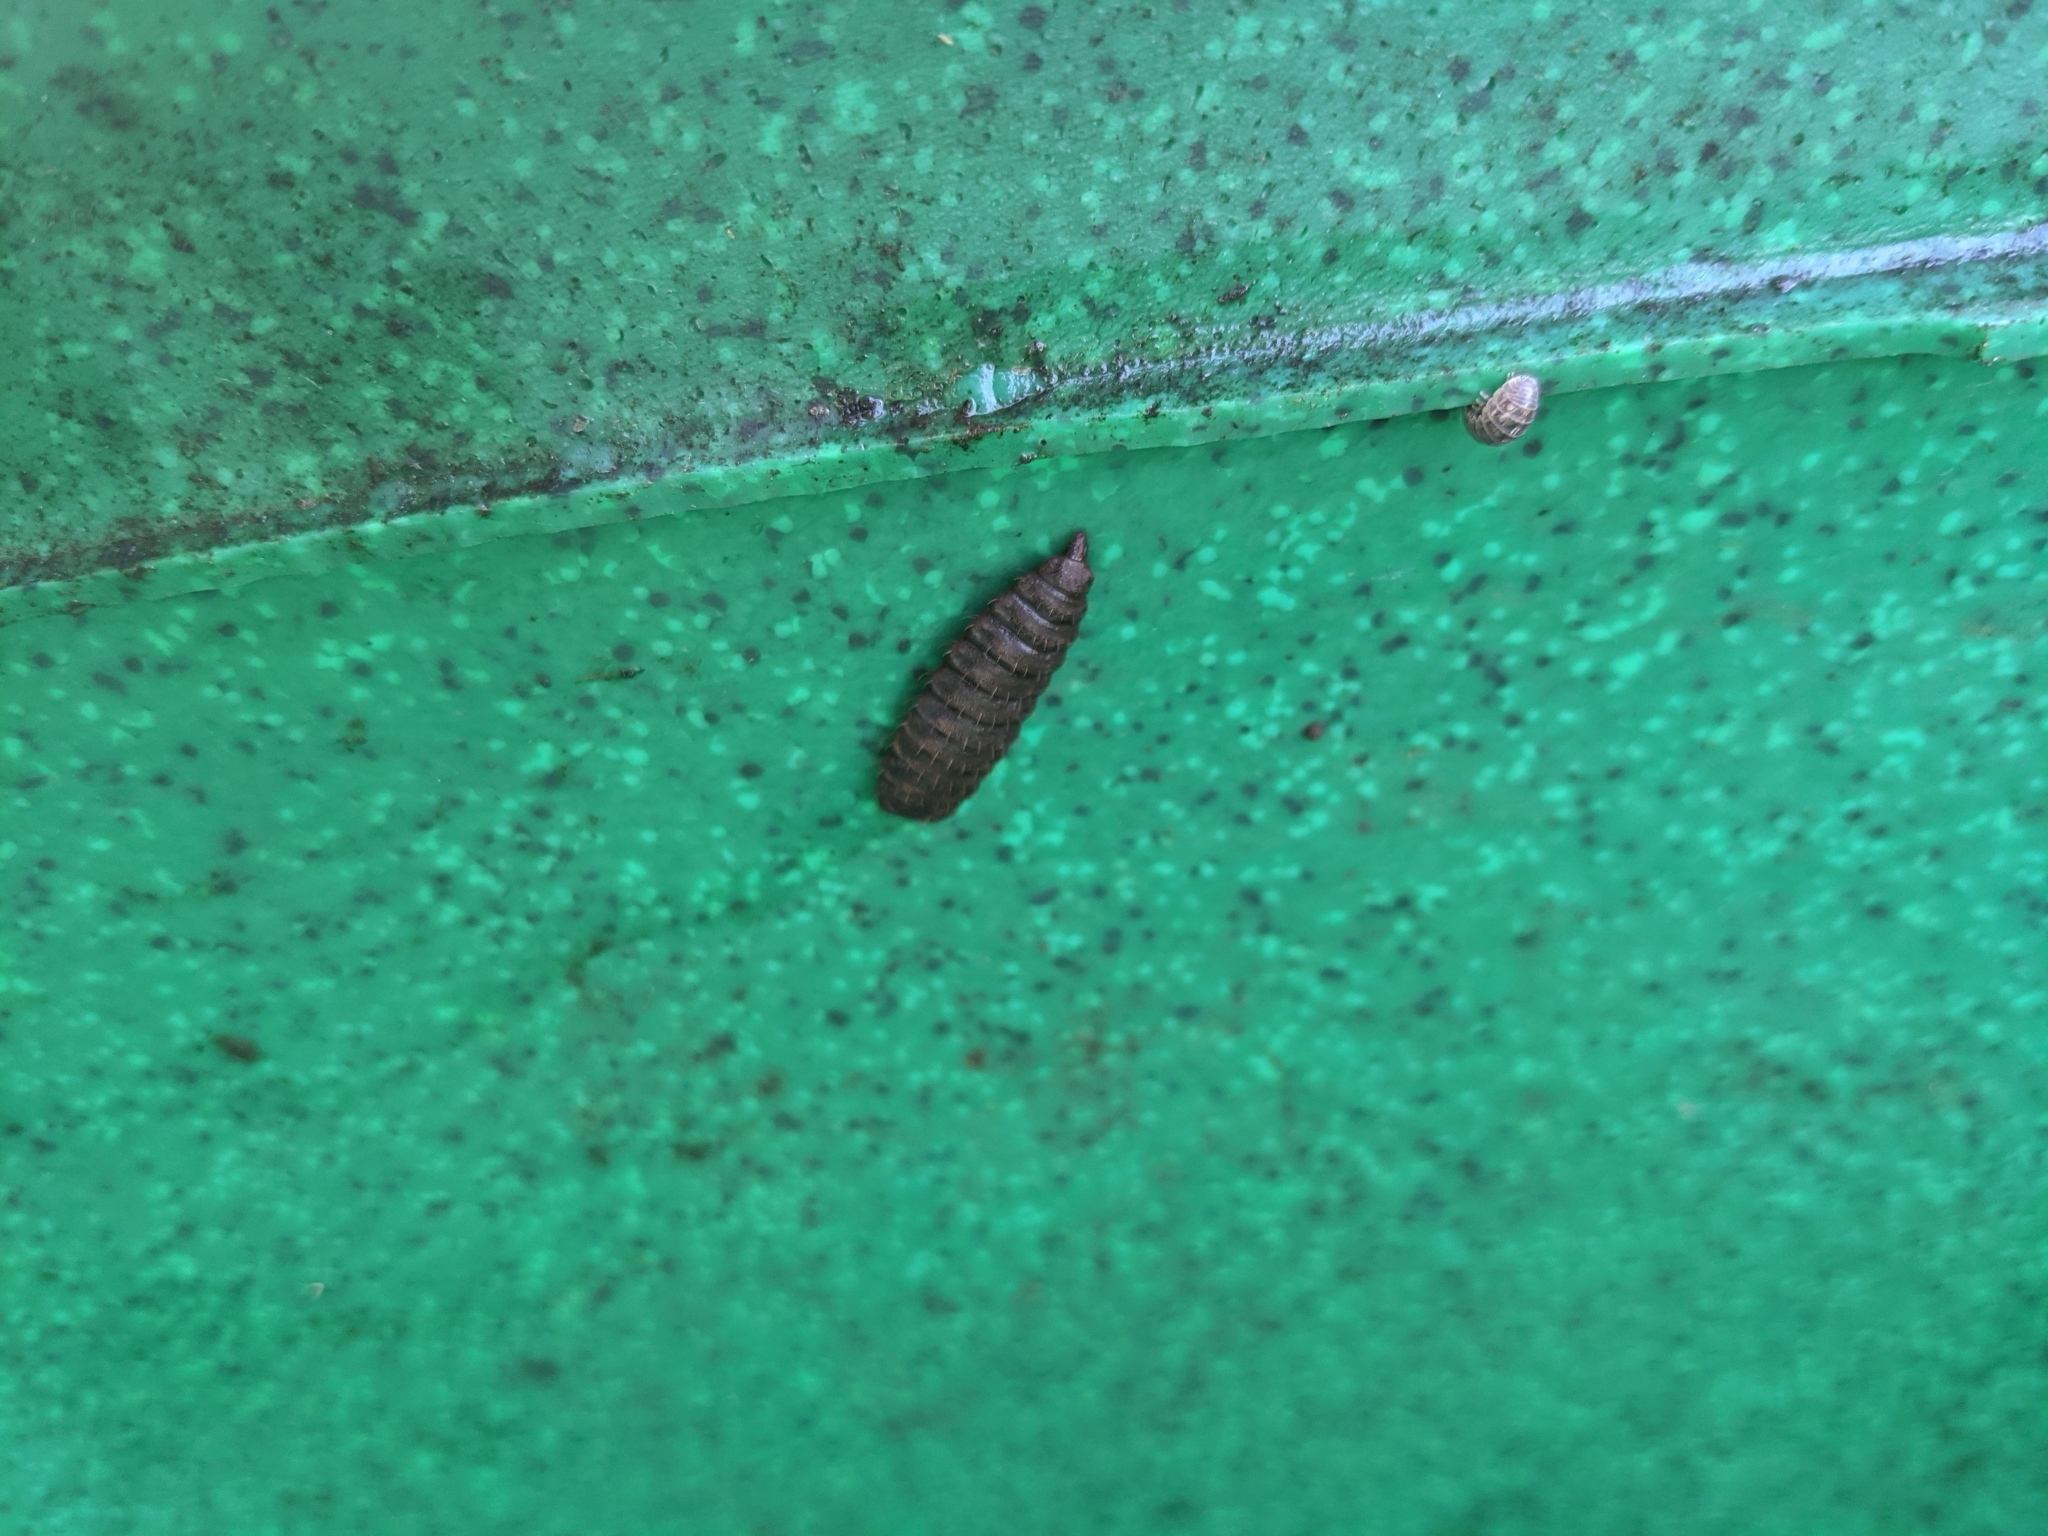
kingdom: Animalia
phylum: Arthropoda
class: Insecta
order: Diptera
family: Stratiomyidae
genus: Hermetia
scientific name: Hermetia illucens
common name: Black soldier fly
